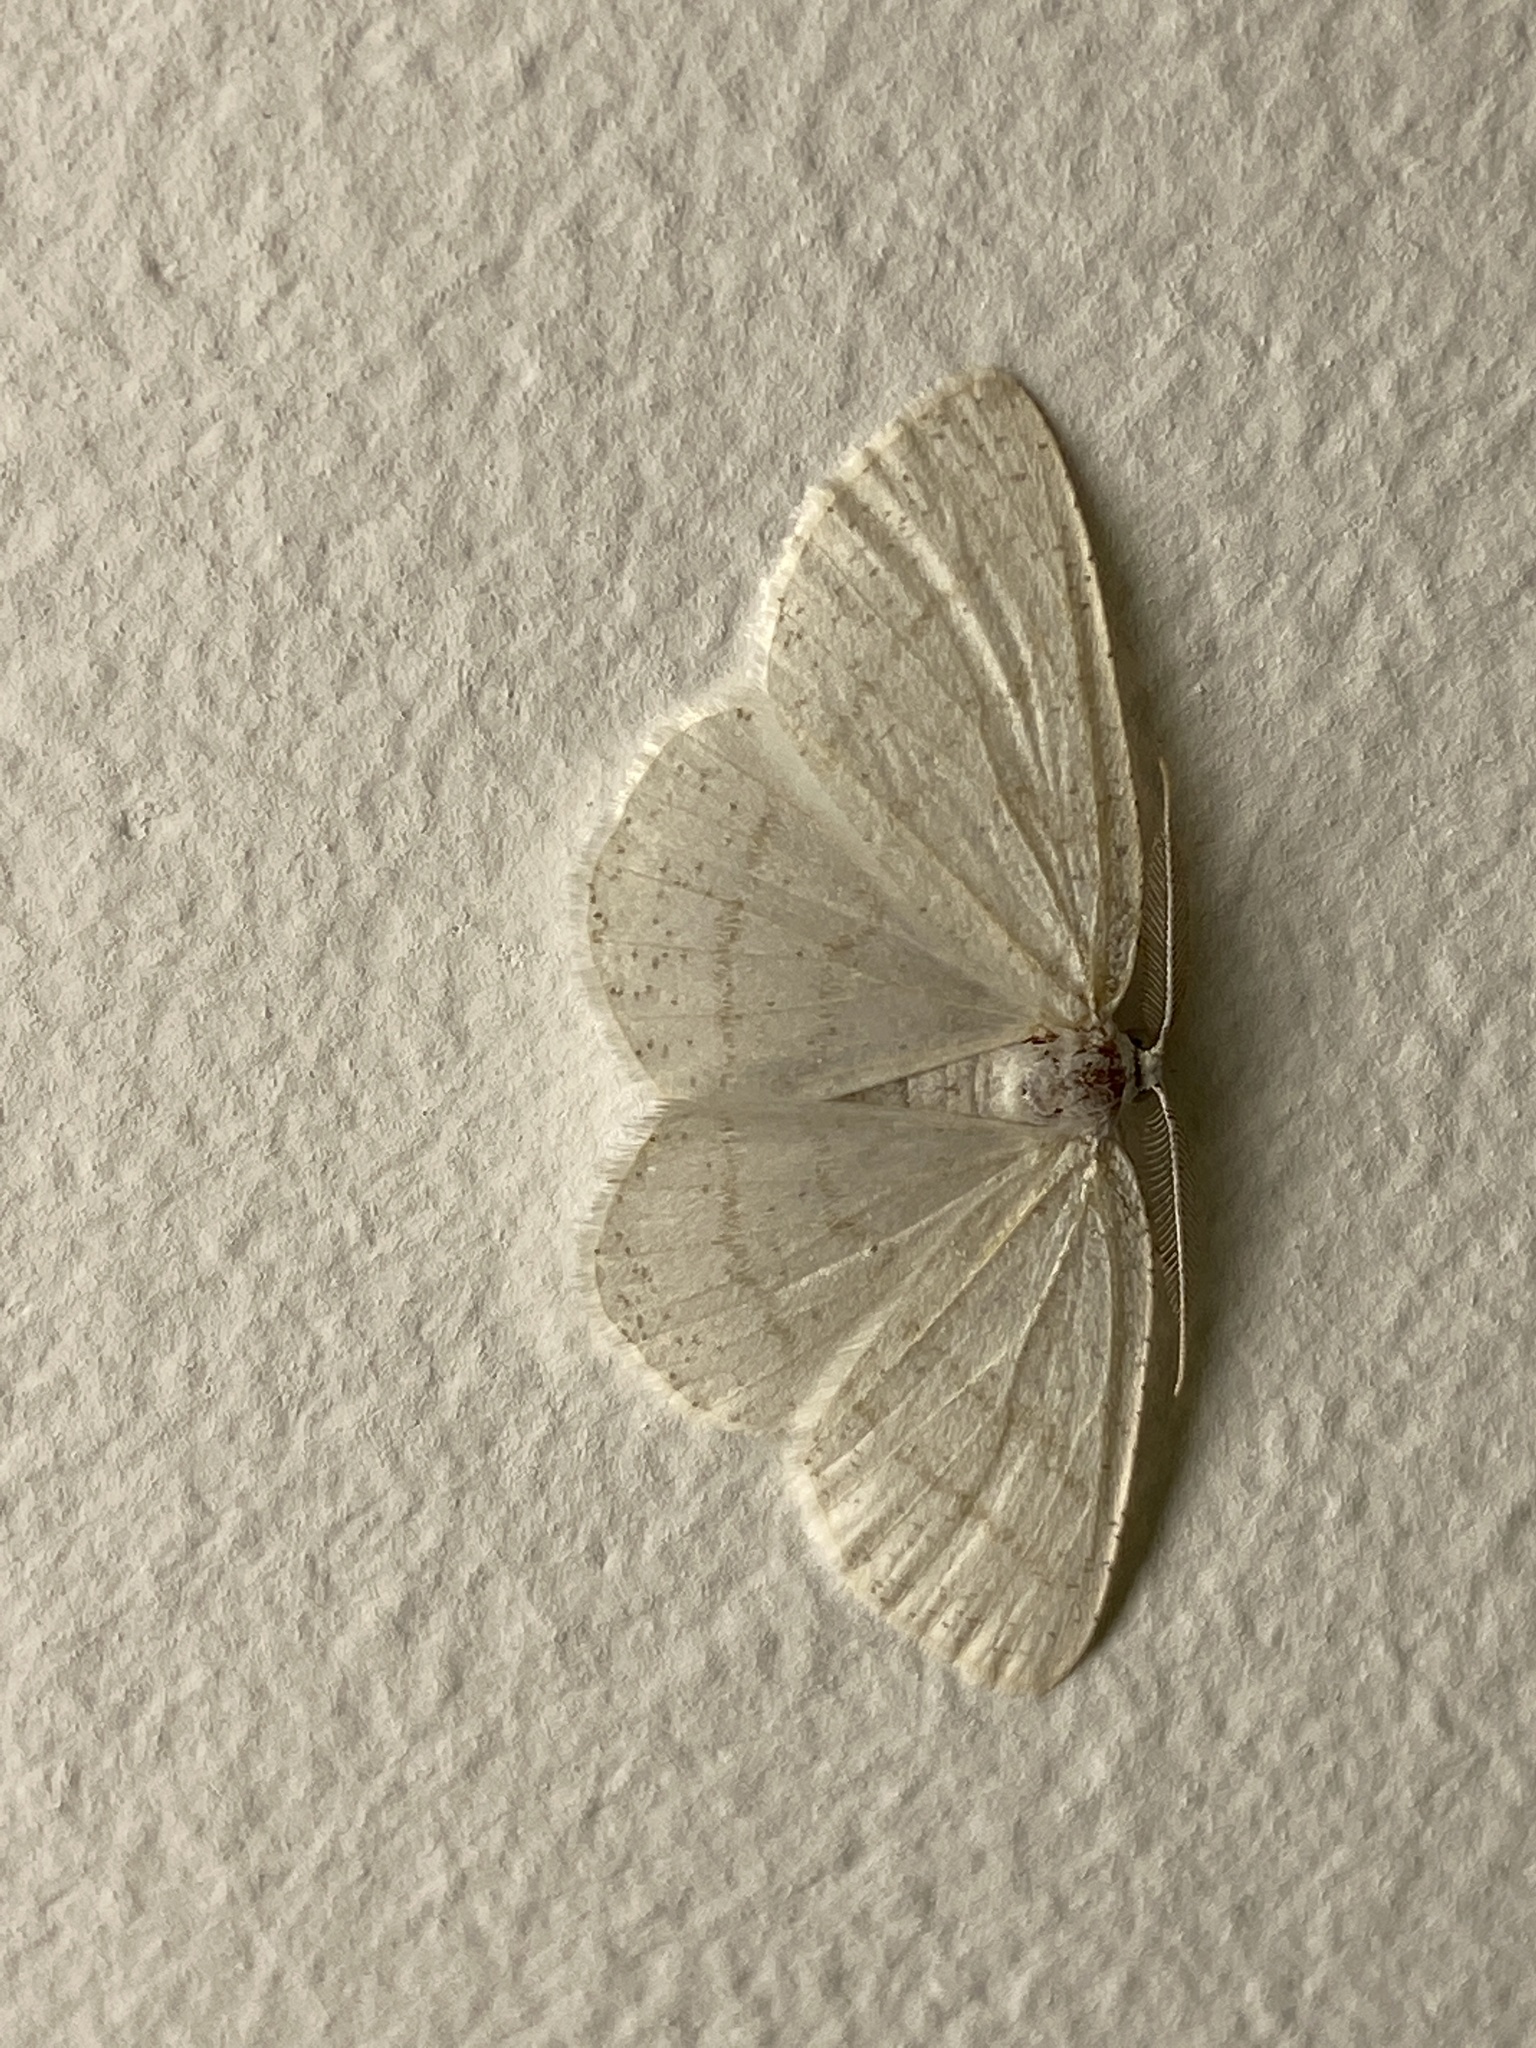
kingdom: Animalia
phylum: Arthropoda
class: Insecta
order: Lepidoptera
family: Geometridae
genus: Cabera
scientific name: Cabera pusaria
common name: Common white wave
